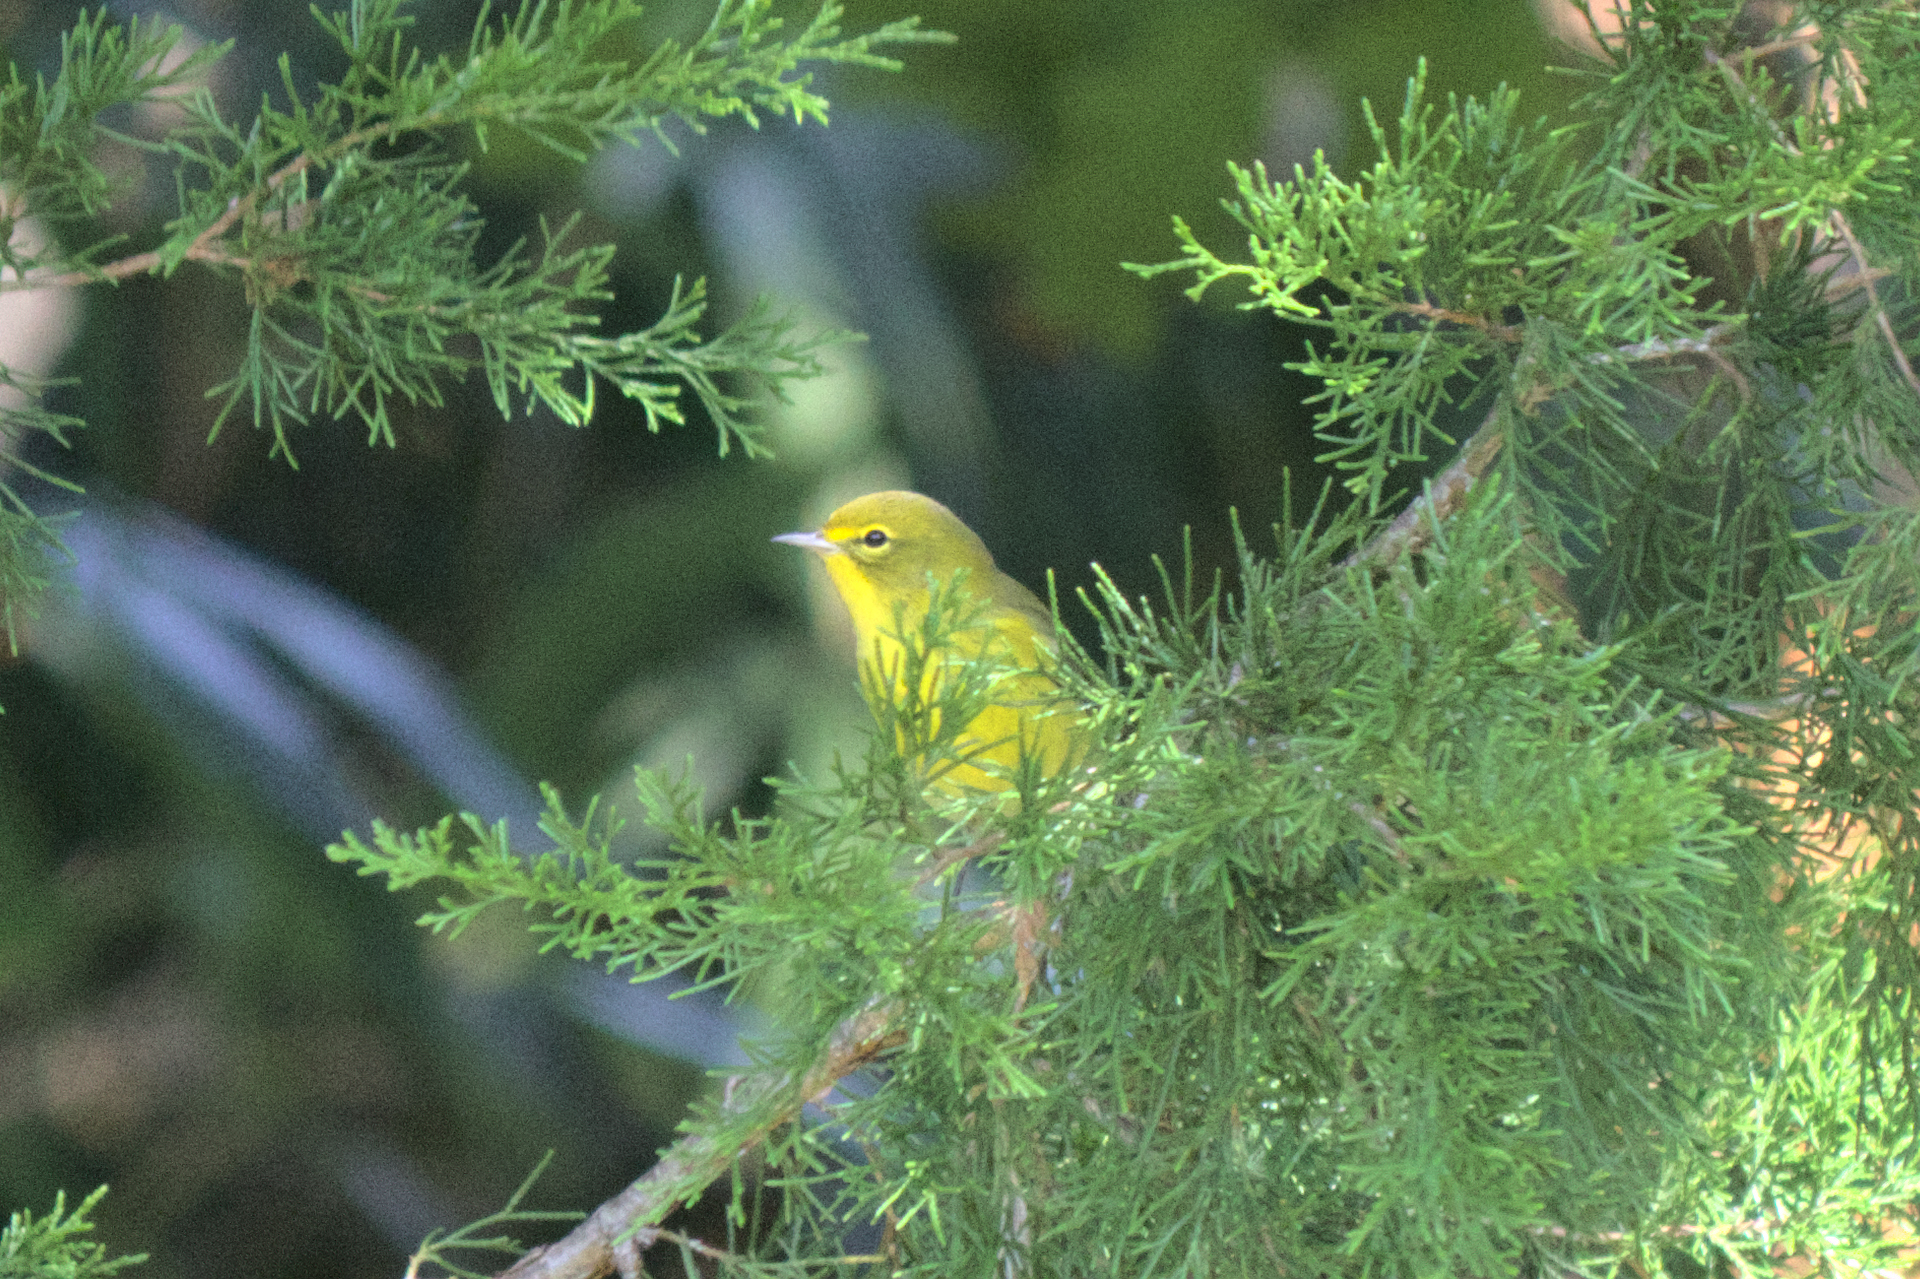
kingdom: Animalia
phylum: Chordata
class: Aves
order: Passeriformes
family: Parulidae
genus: Setophaga
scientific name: Setophaga pinus
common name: Pine warbler
